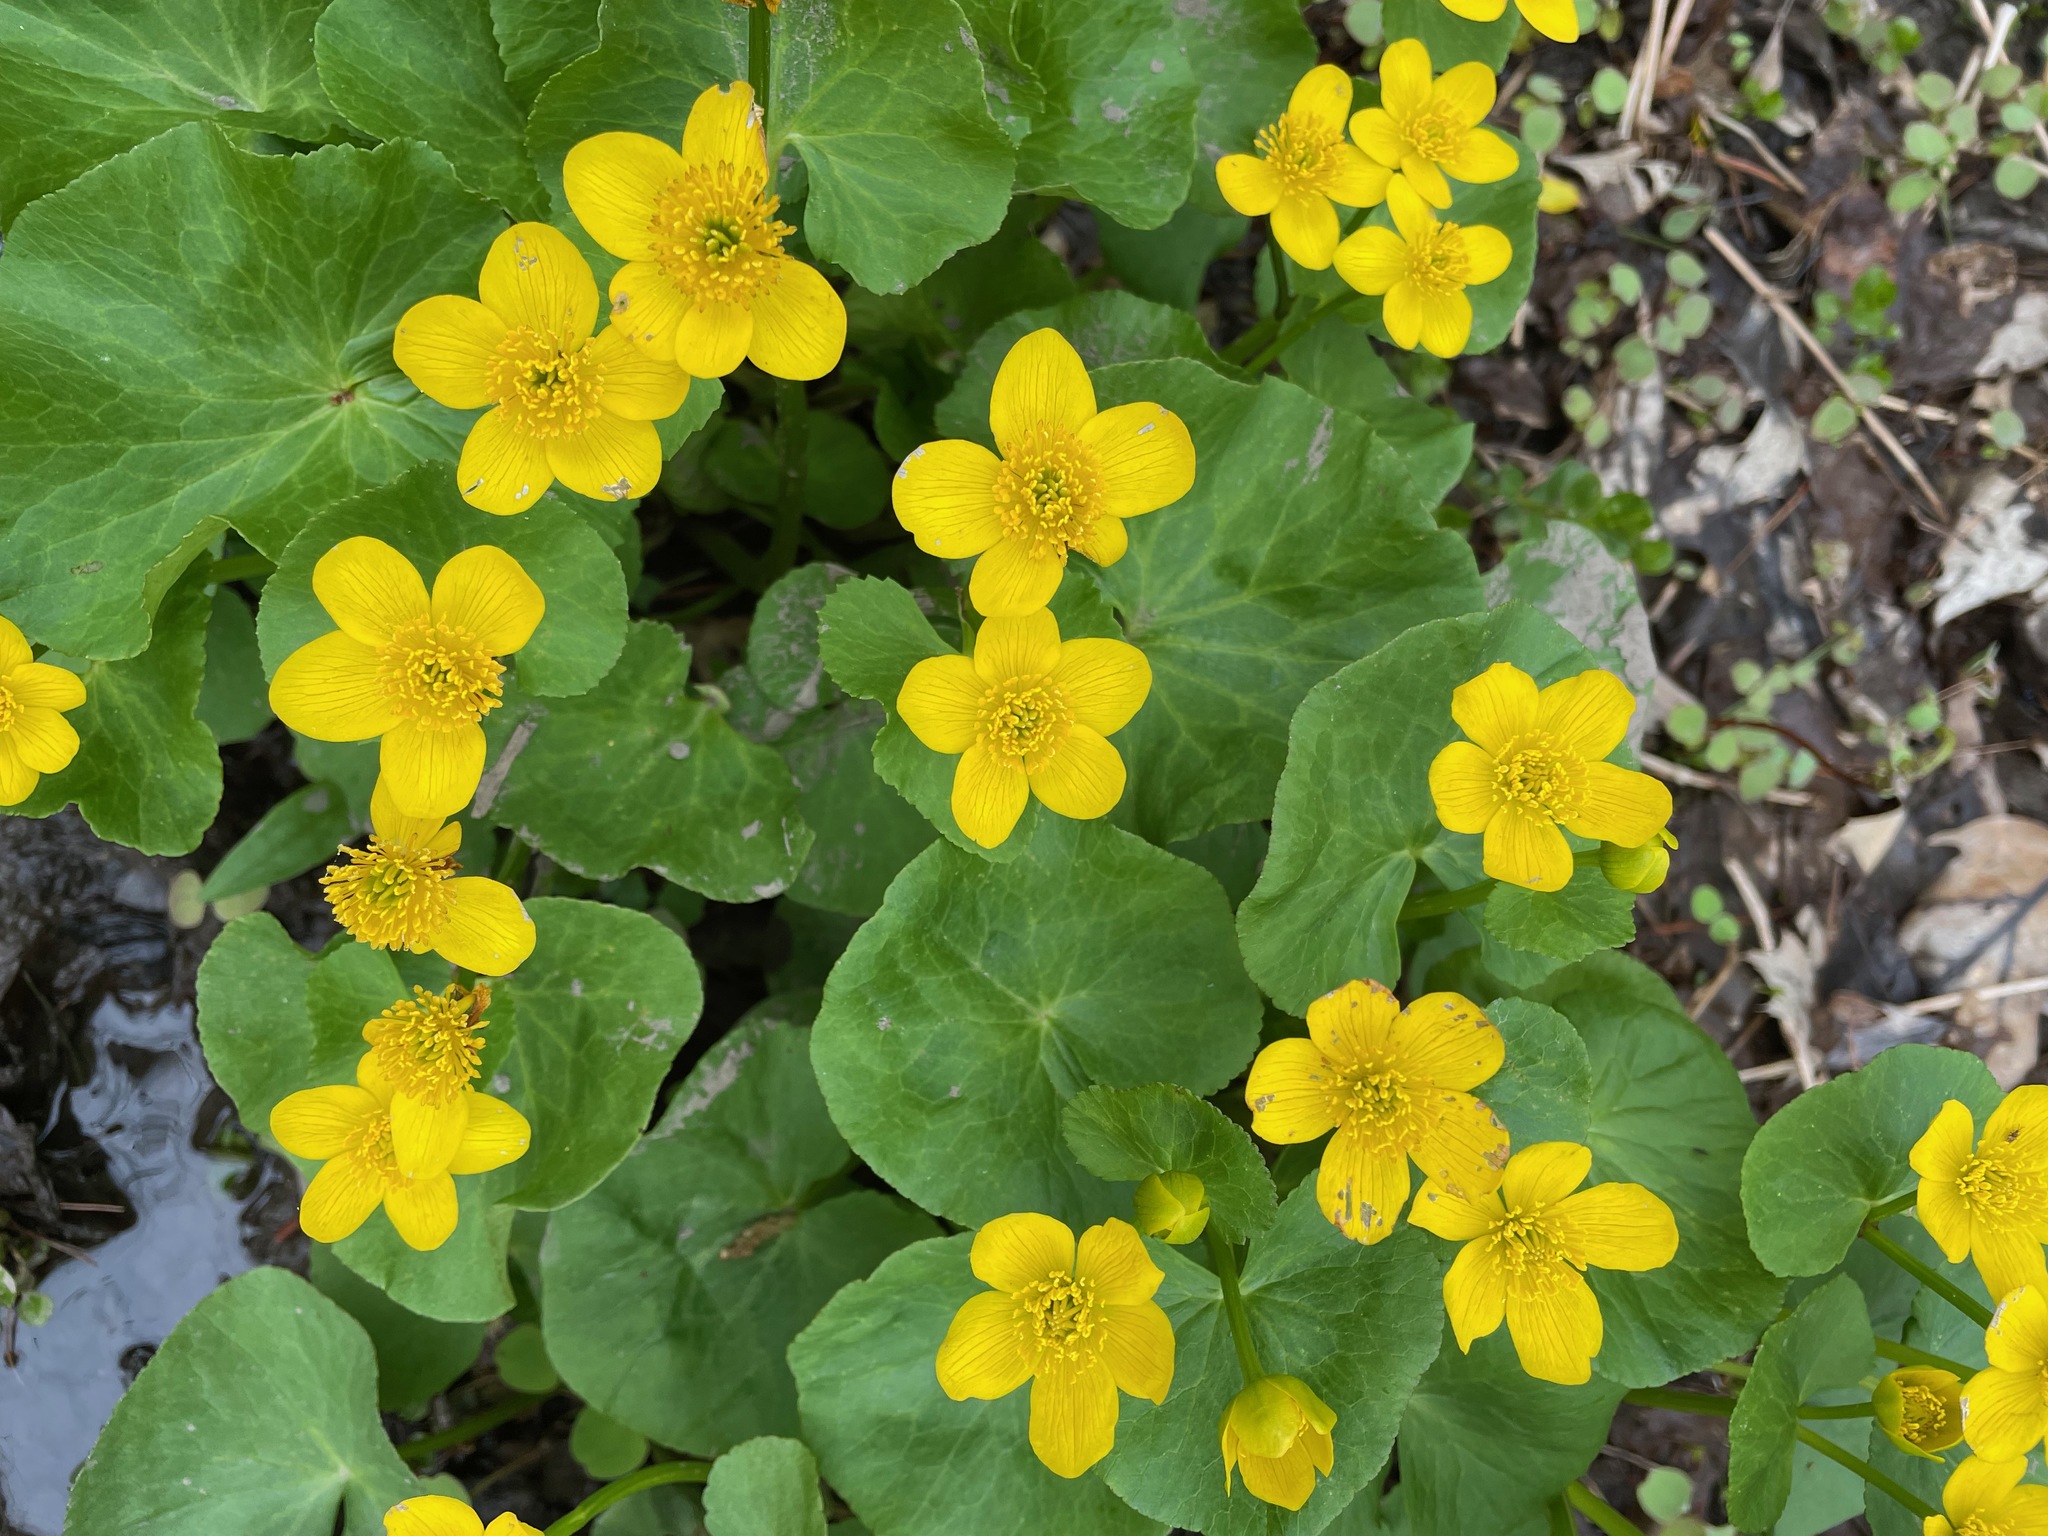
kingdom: Plantae
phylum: Tracheophyta
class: Magnoliopsida
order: Ranunculales
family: Ranunculaceae
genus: Caltha
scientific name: Caltha palustris
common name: Marsh marigold
